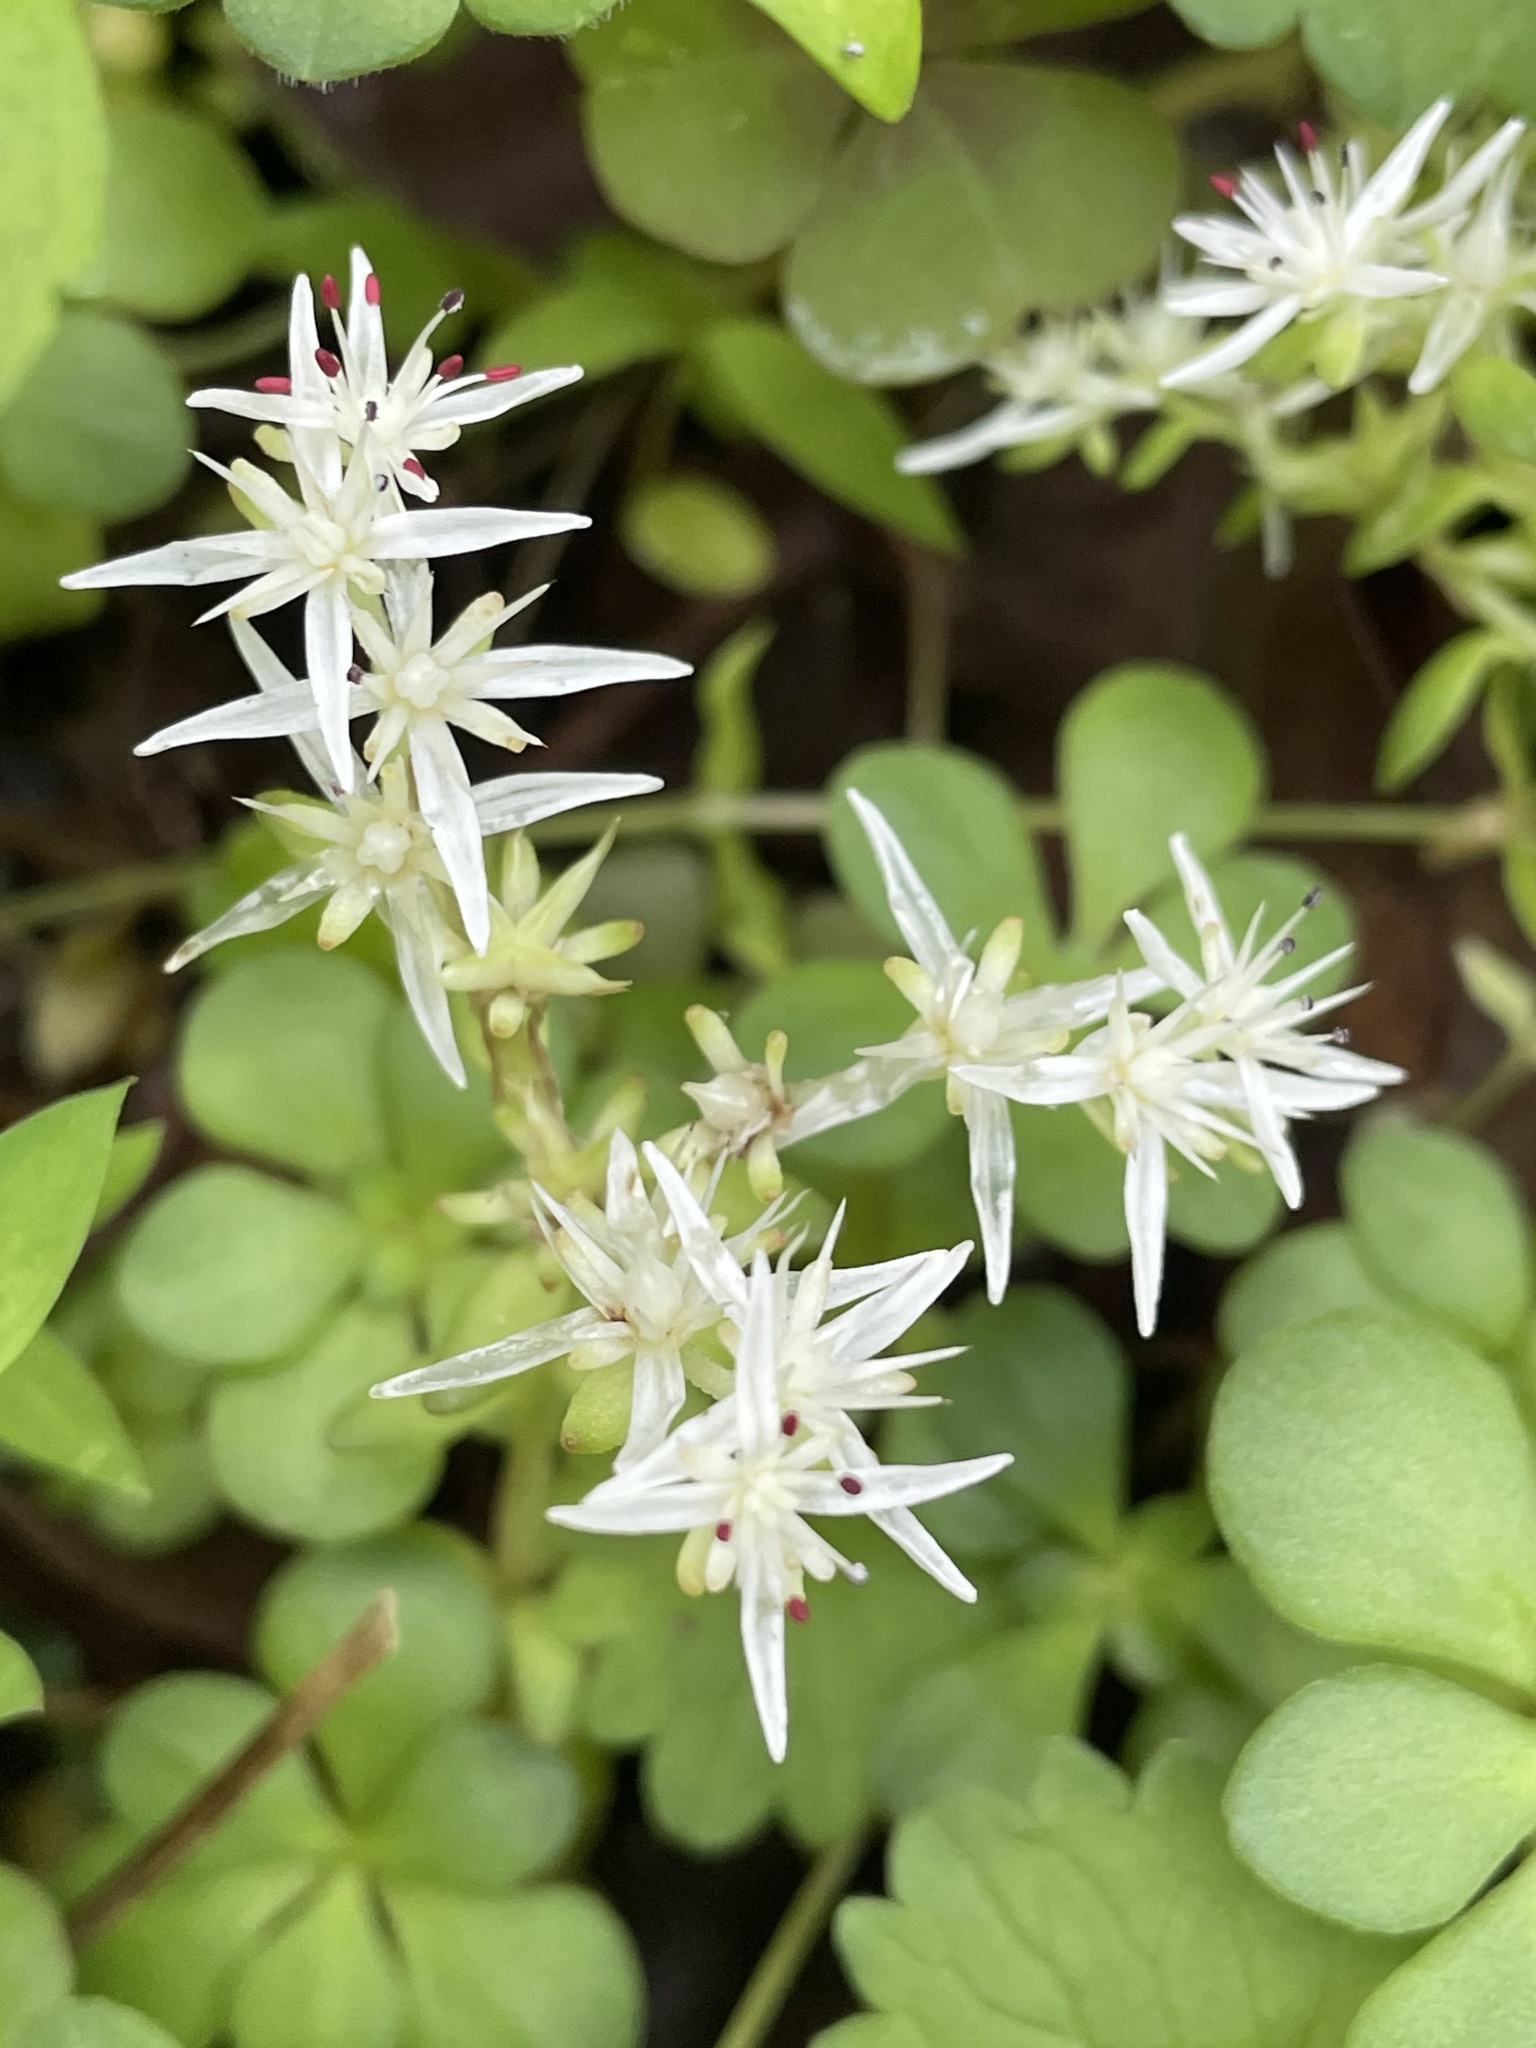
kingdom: Plantae
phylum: Tracheophyta
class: Magnoliopsida
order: Saxifragales
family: Crassulaceae
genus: Sedum
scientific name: Sedum ternatum
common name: Wild stonecrop
